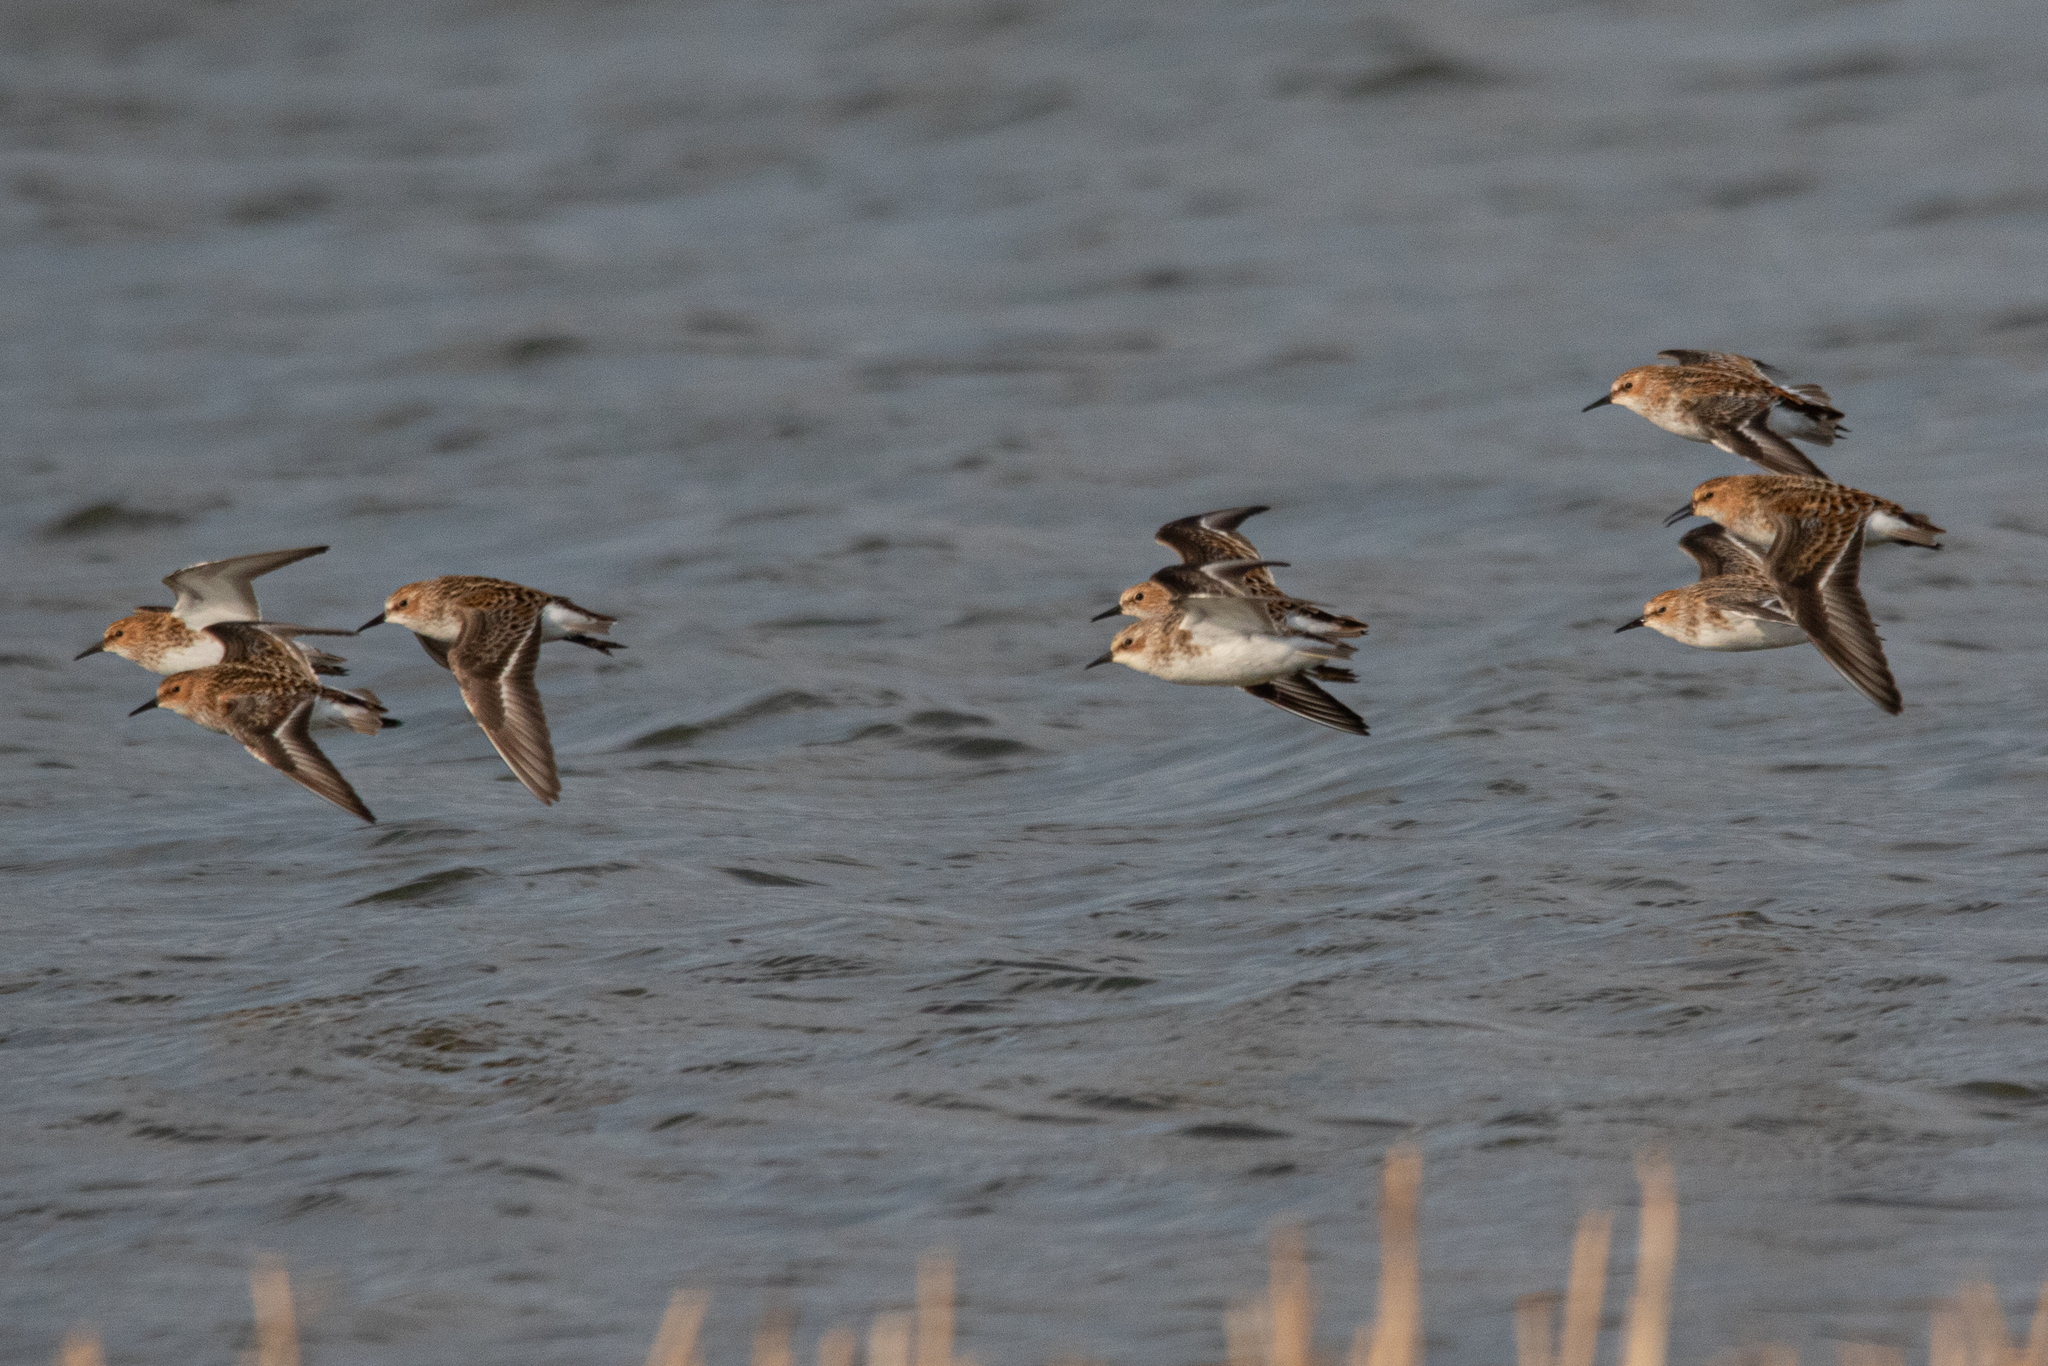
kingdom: Animalia
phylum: Chordata
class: Aves
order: Charadriiformes
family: Scolopacidae
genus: Calidris
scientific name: Calidris minuta
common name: Little stint
